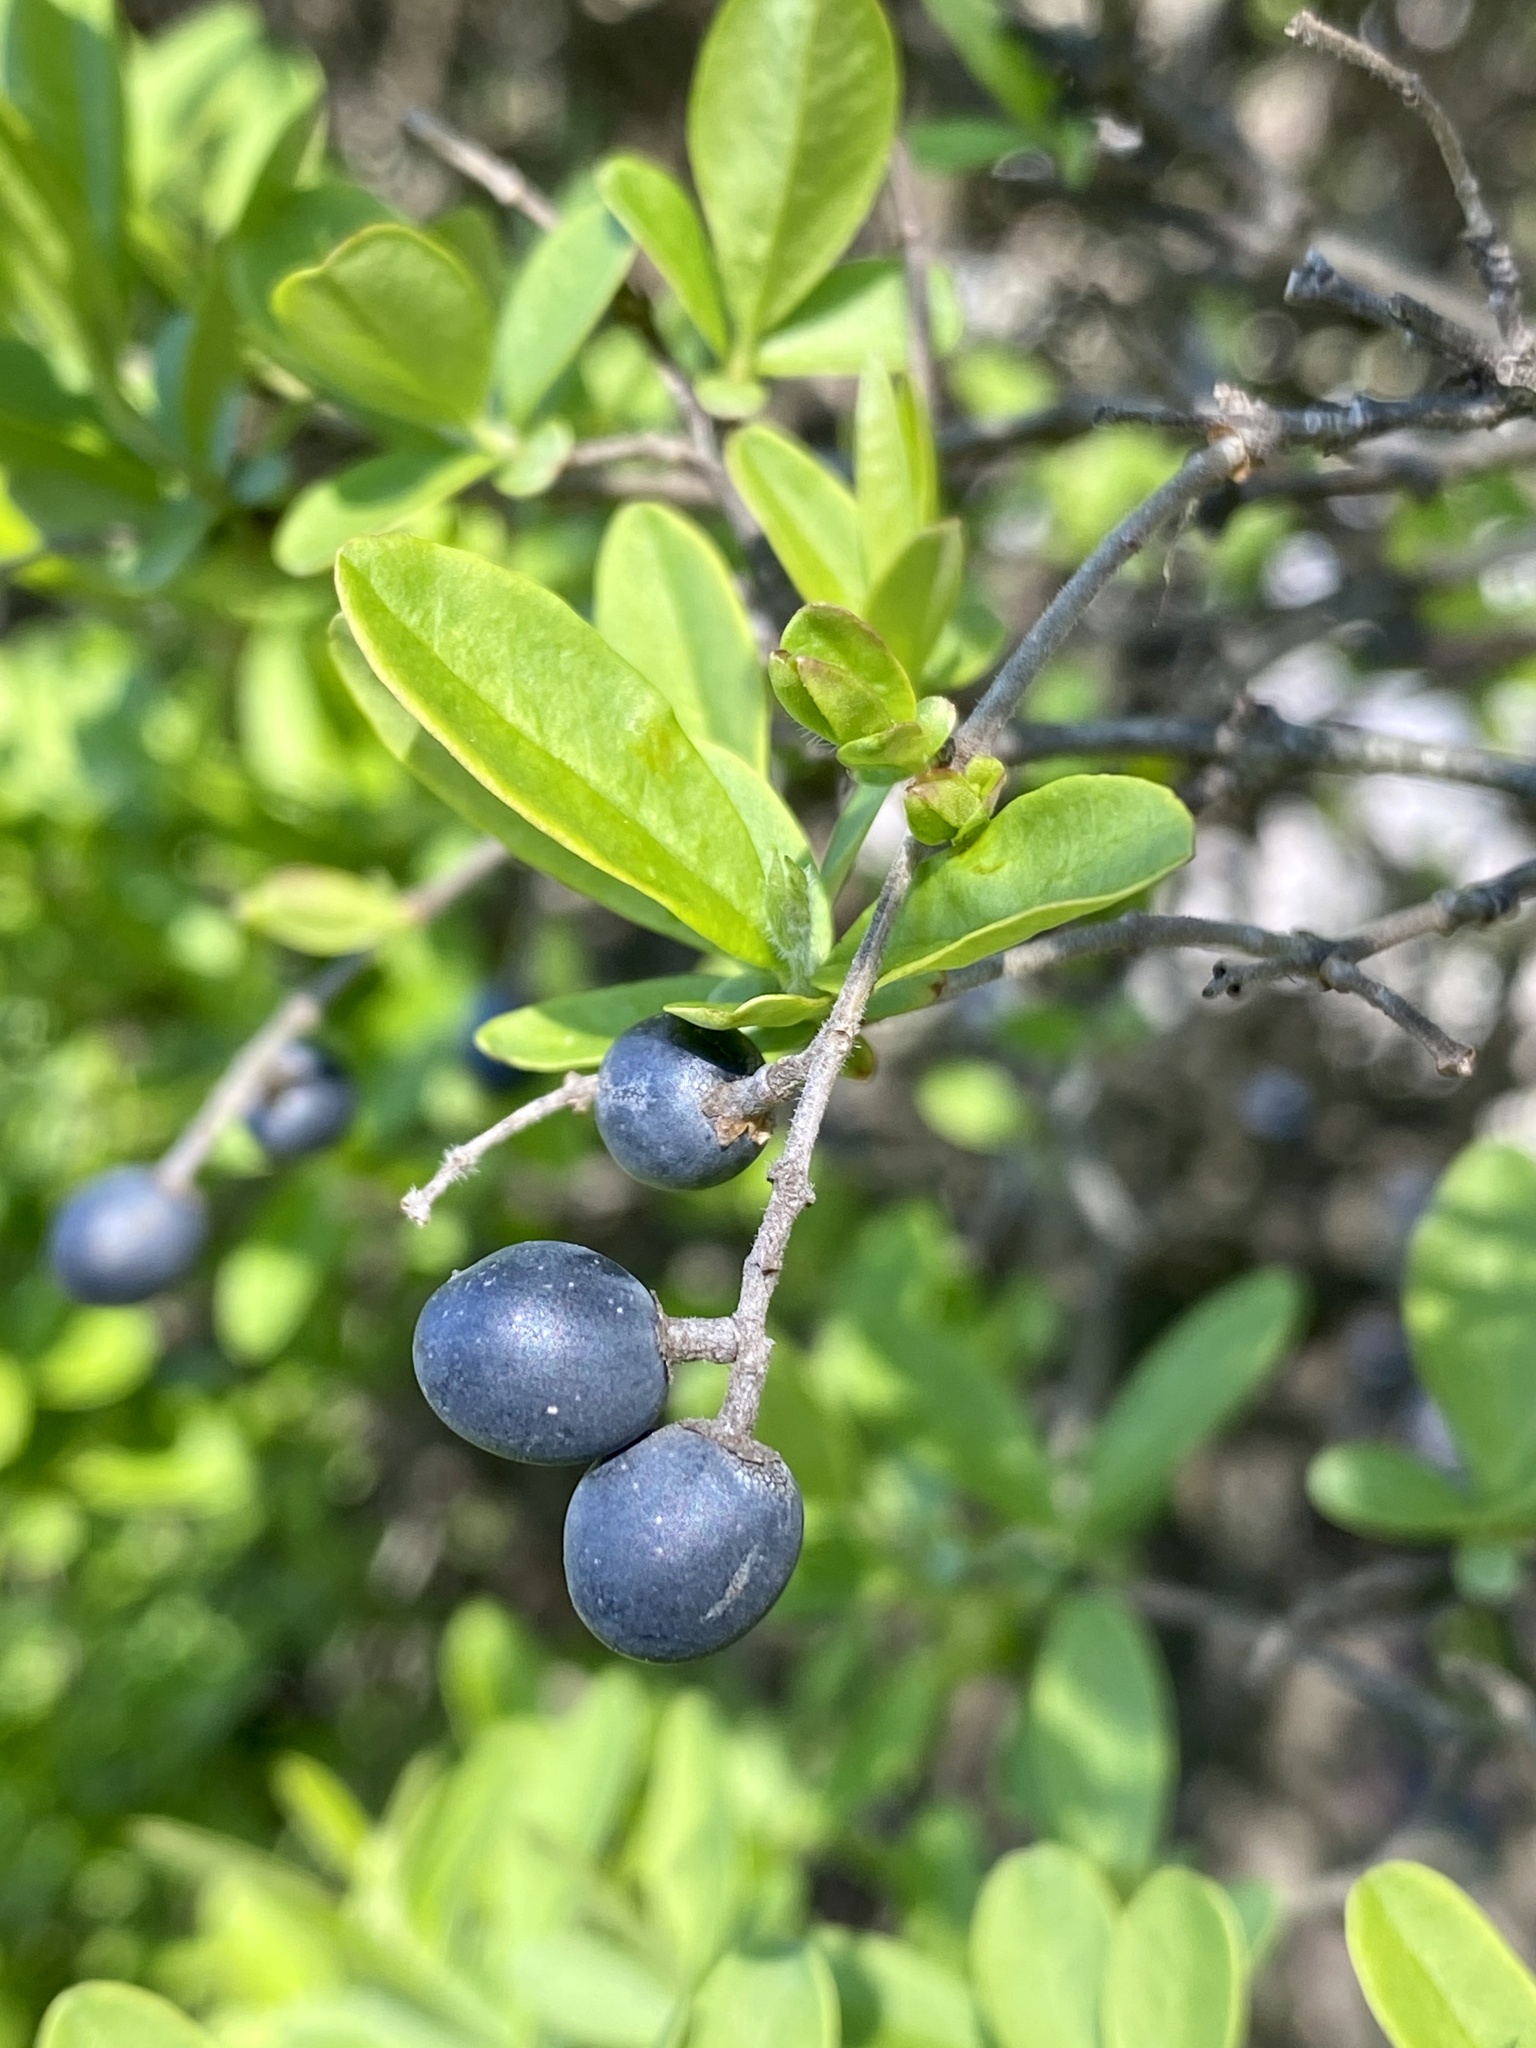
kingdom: Plantae
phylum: Tracheophyta
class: Magnoliopsida
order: Lamiales
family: Oleaceae
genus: Ligustrum
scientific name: Ligustrum obtusifolium
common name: Border privet
